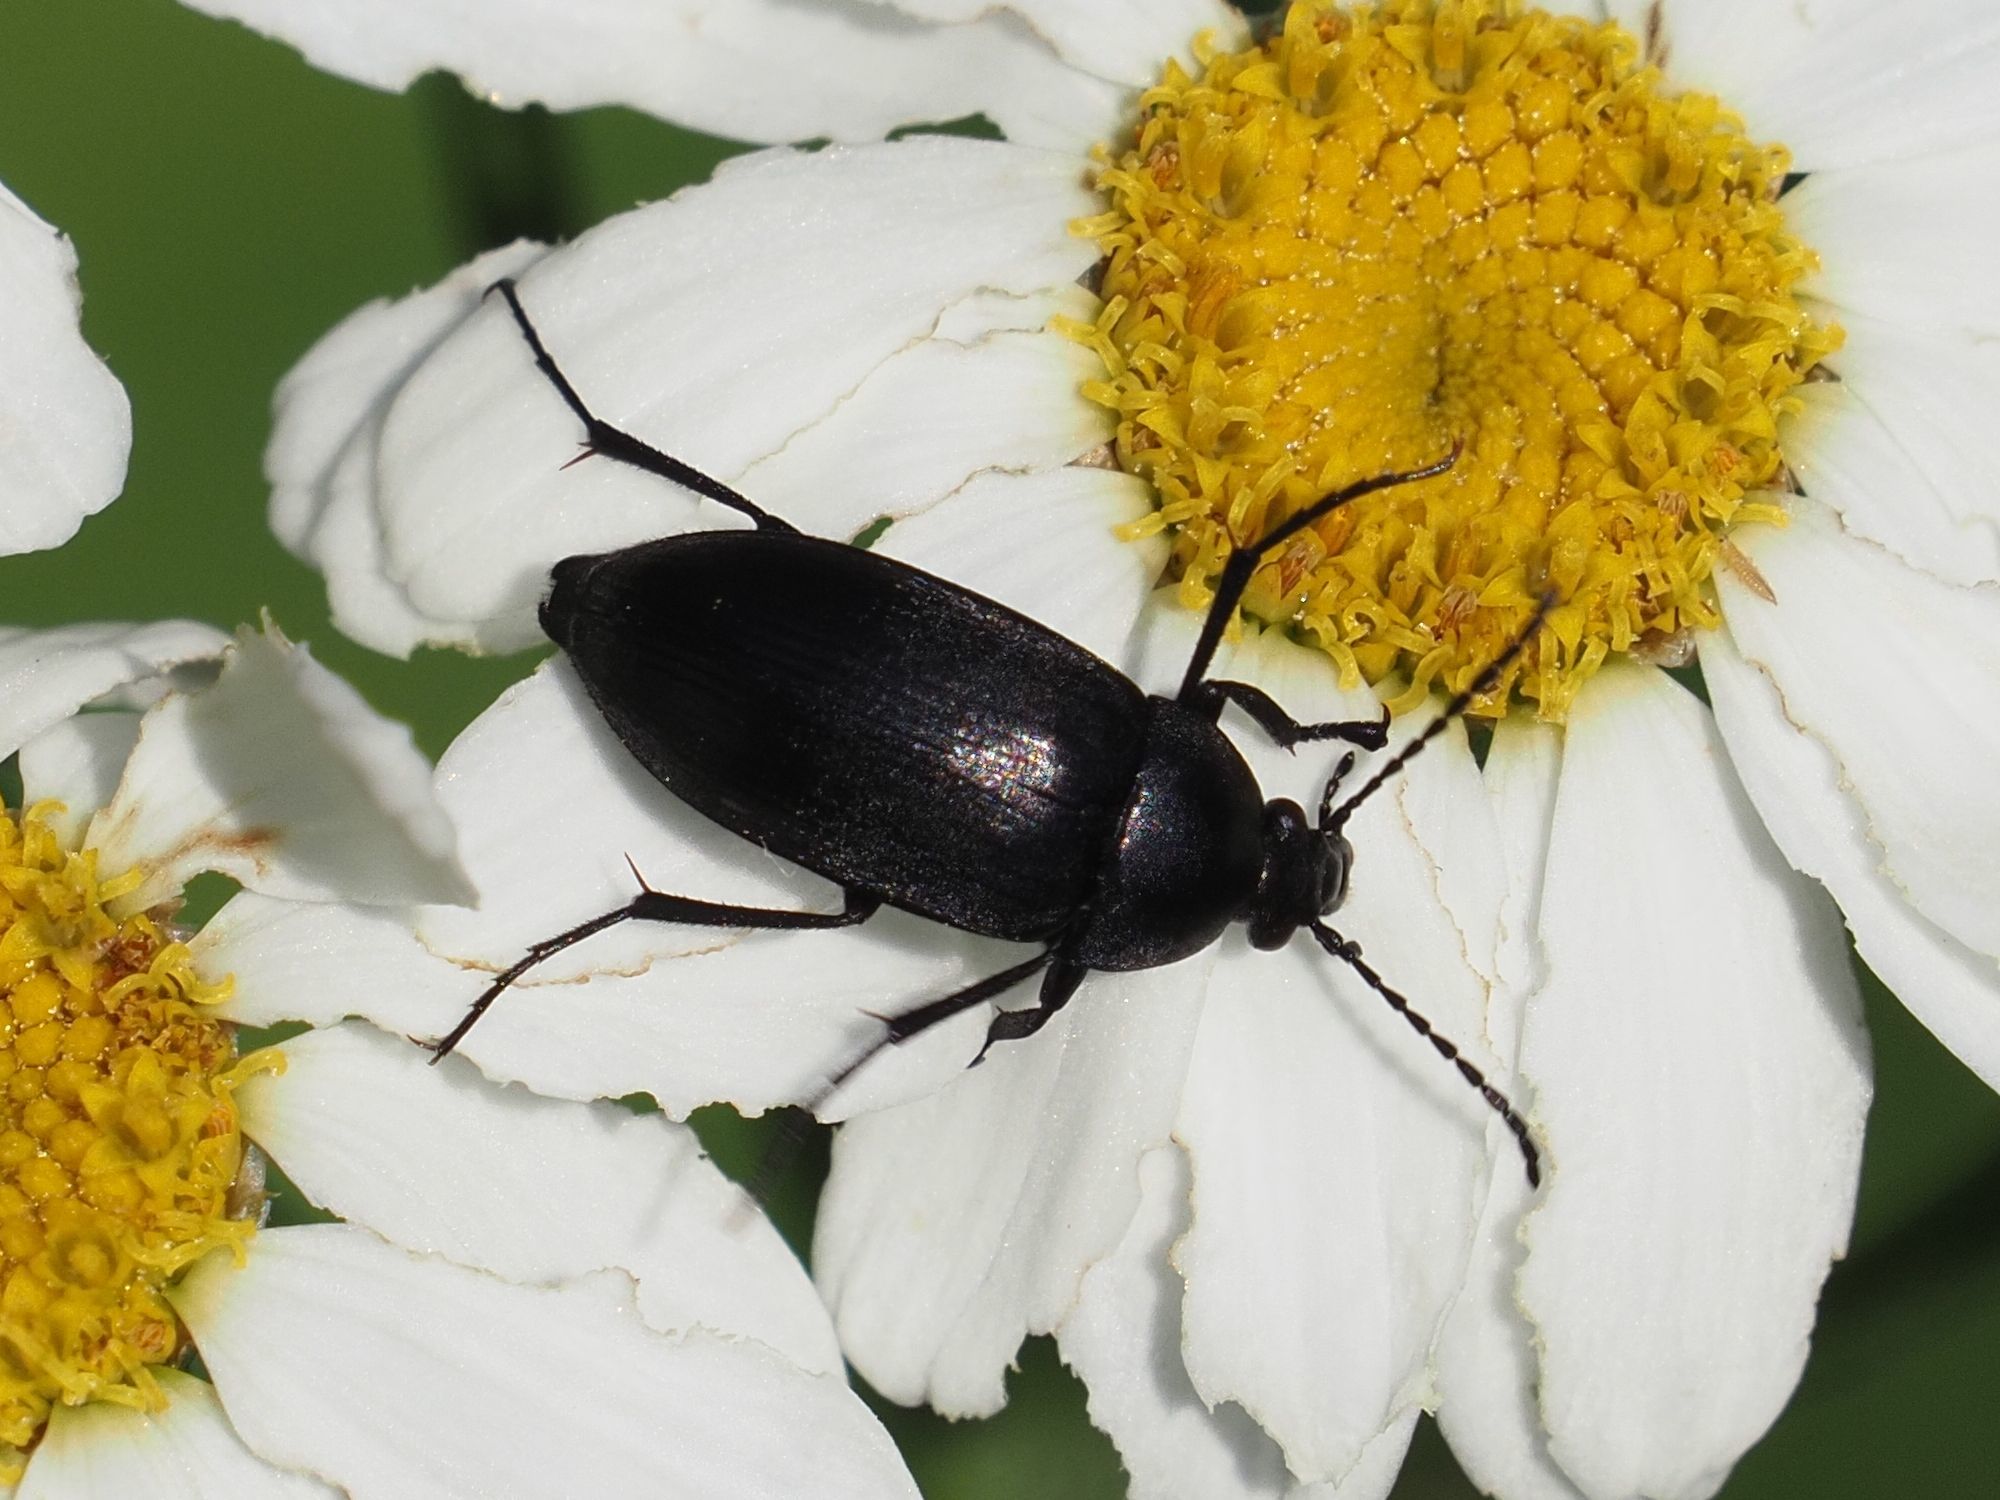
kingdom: Animalia
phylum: Arthropoda
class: Insecta
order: Coleoptera
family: Tenebrionidae
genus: Podonta
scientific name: Podonta nigrita
